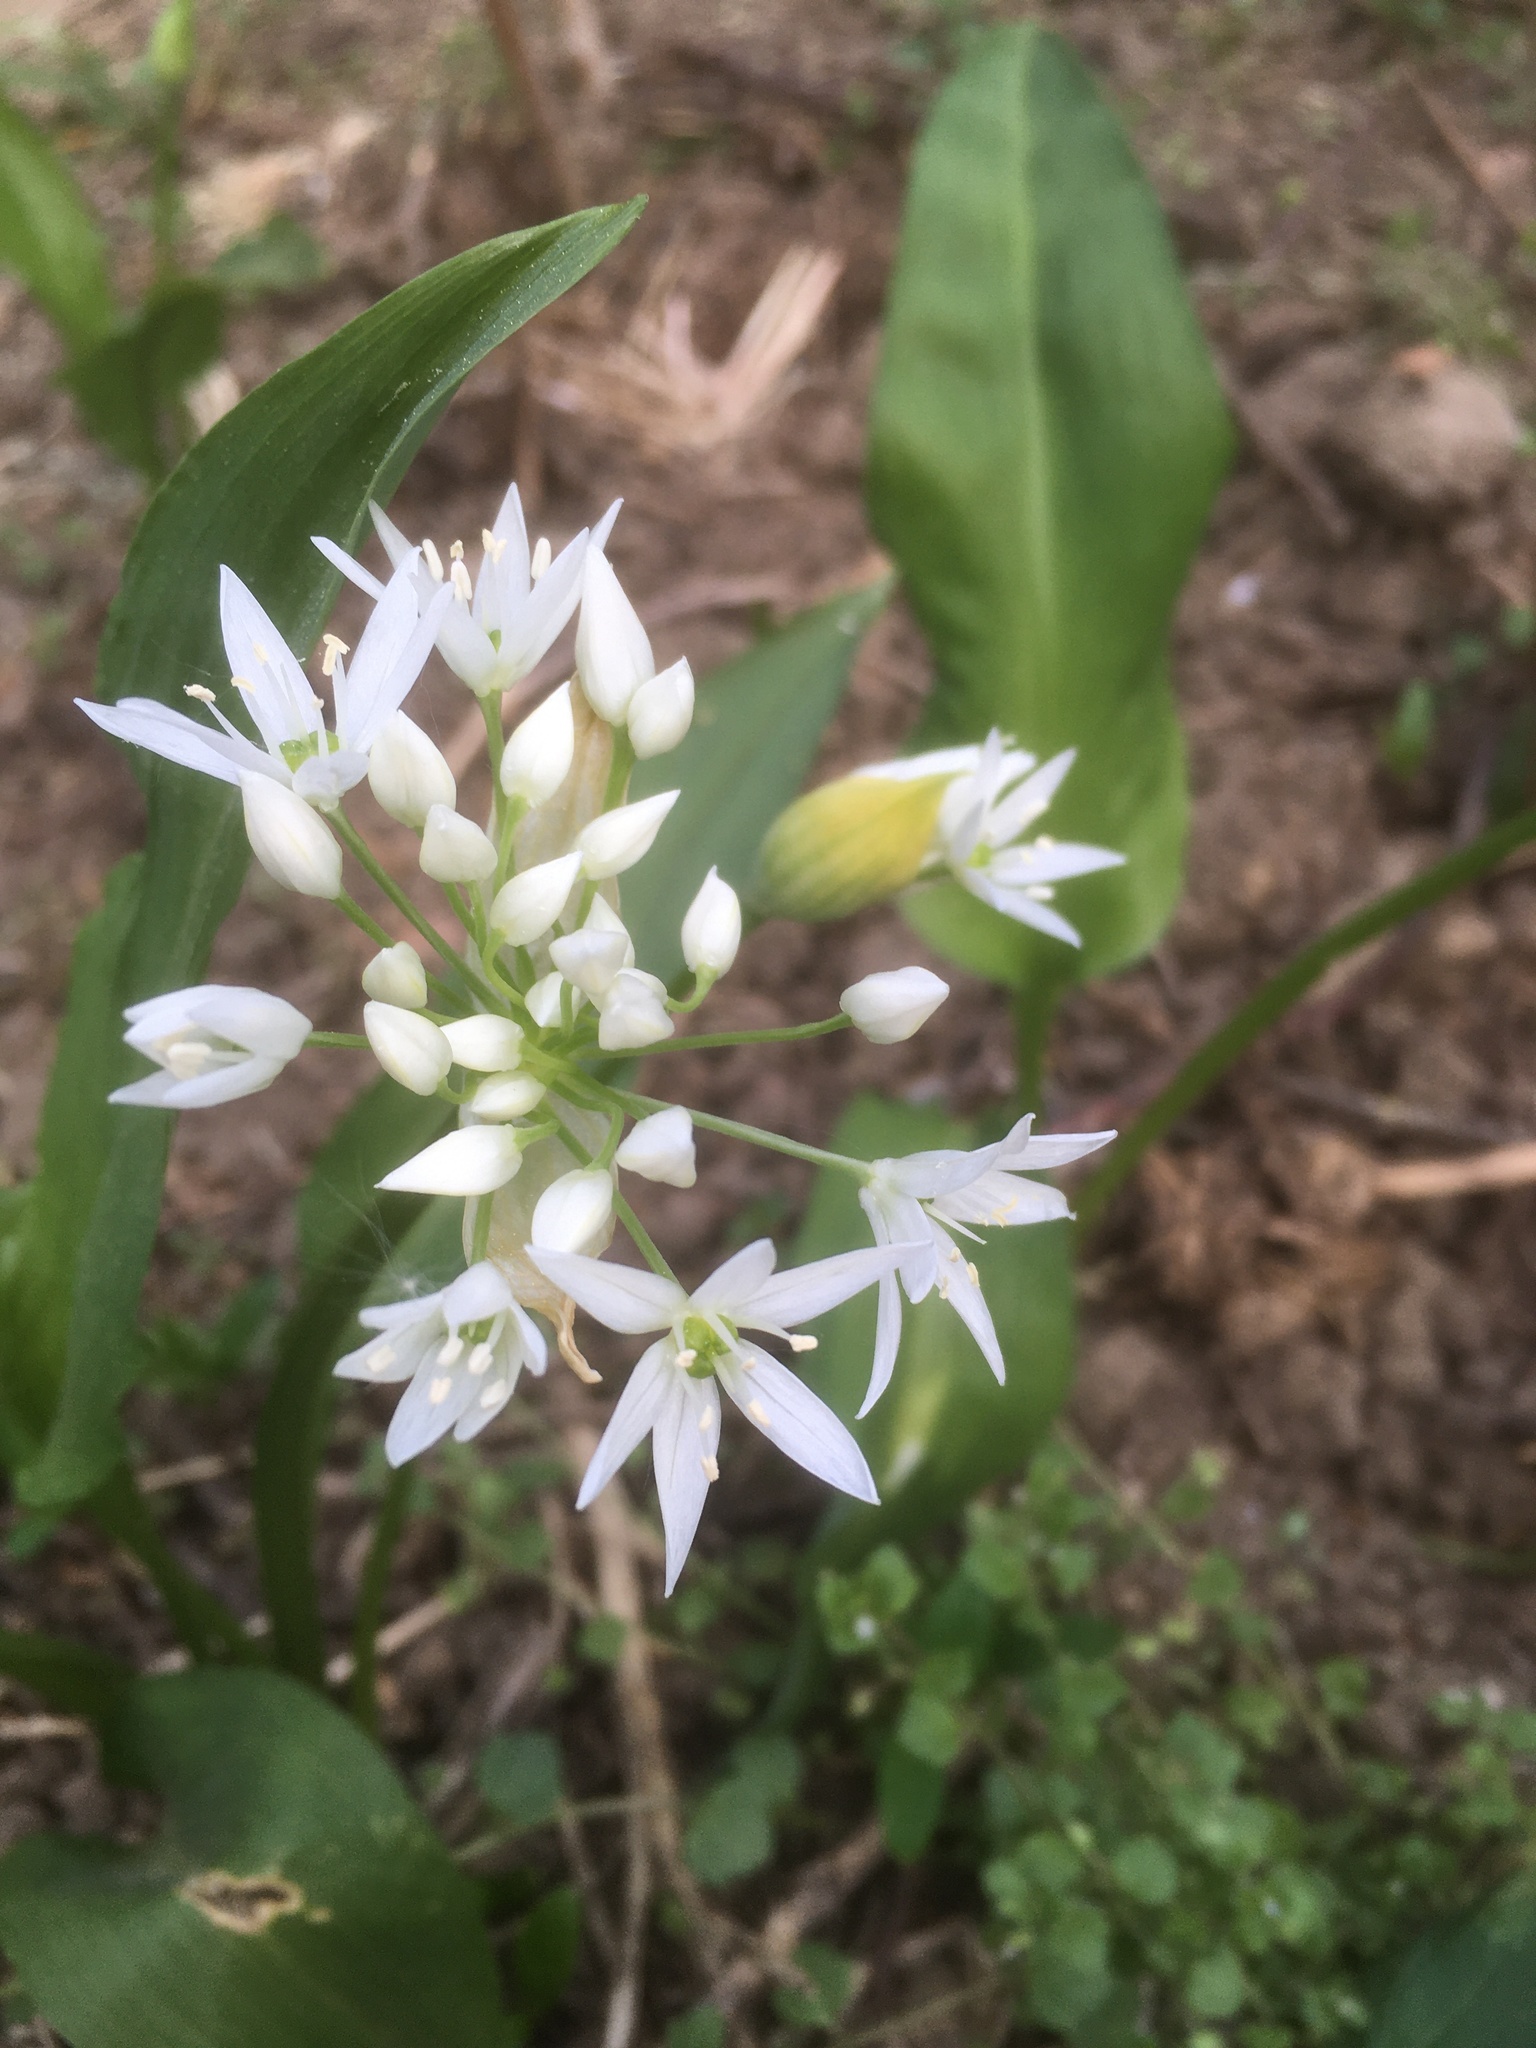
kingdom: Plantae
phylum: Tracheophyta
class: Liliopsida
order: Asparagales
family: Amaryllidaceae
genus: Allium
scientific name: Allium ursinum
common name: Ramsons
